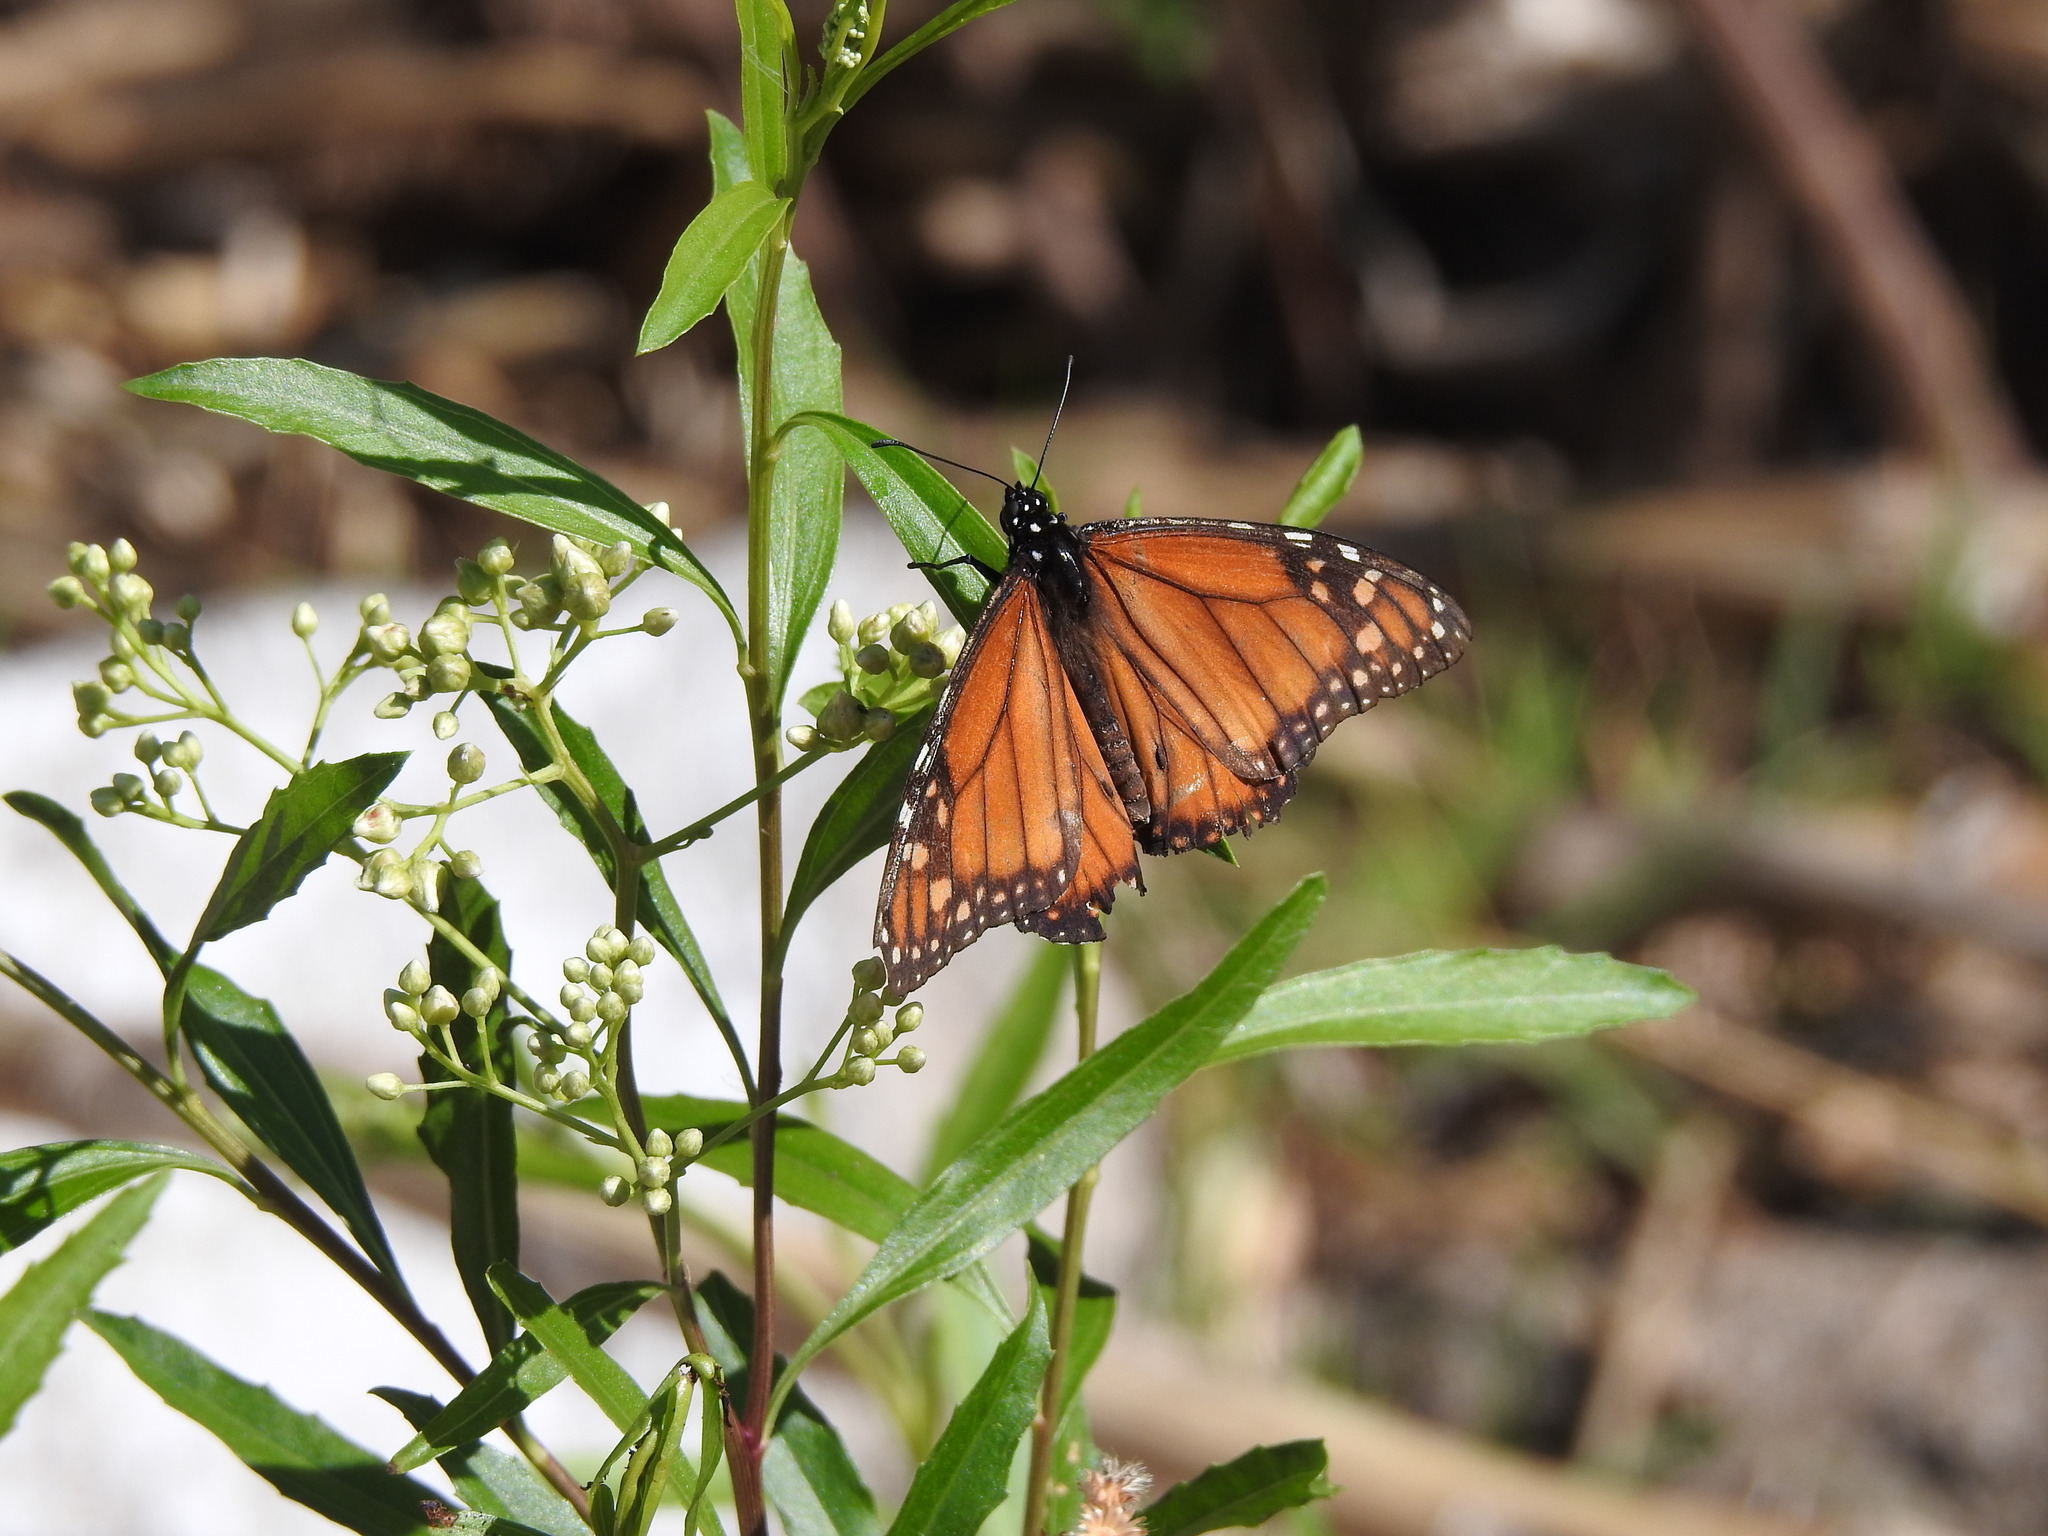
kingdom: Animalia
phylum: Arthropoda
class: Insecta
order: Lepidoptera
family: Nymphalidae
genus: Danaus
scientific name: Danaus erippus
